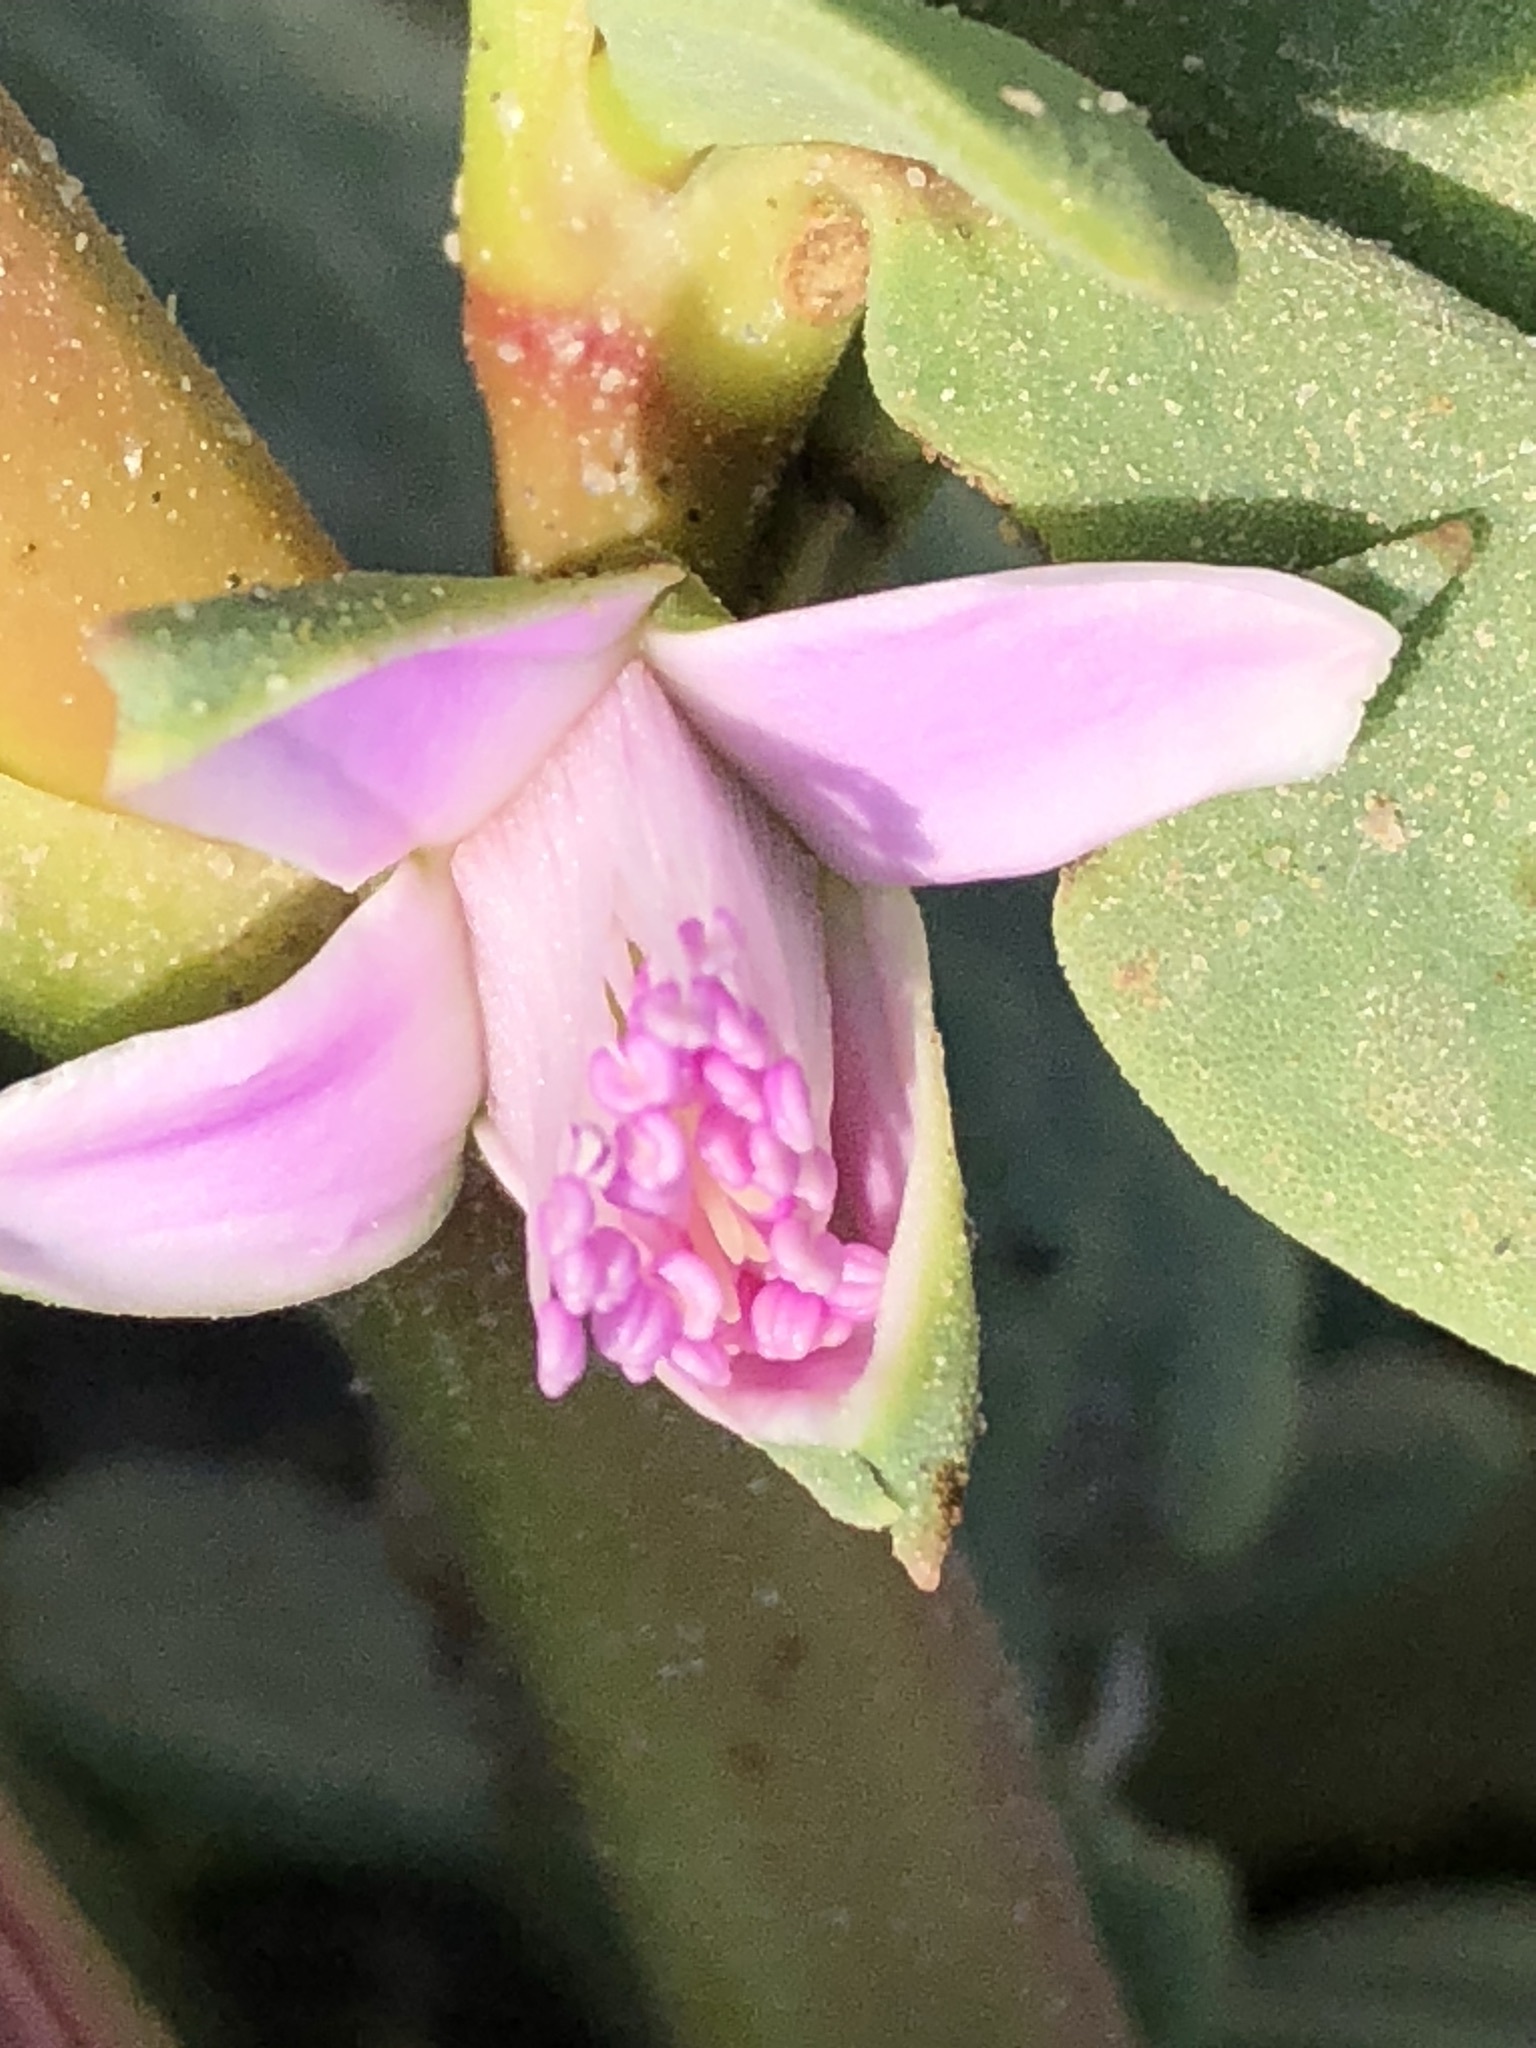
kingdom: Plantae
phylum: Tracheophyta
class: Magnoliopsida
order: Caryophyllales
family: Aizoaceae
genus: Sesuvium
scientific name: Sesuvium portulacastrum
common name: Sea-purslane
